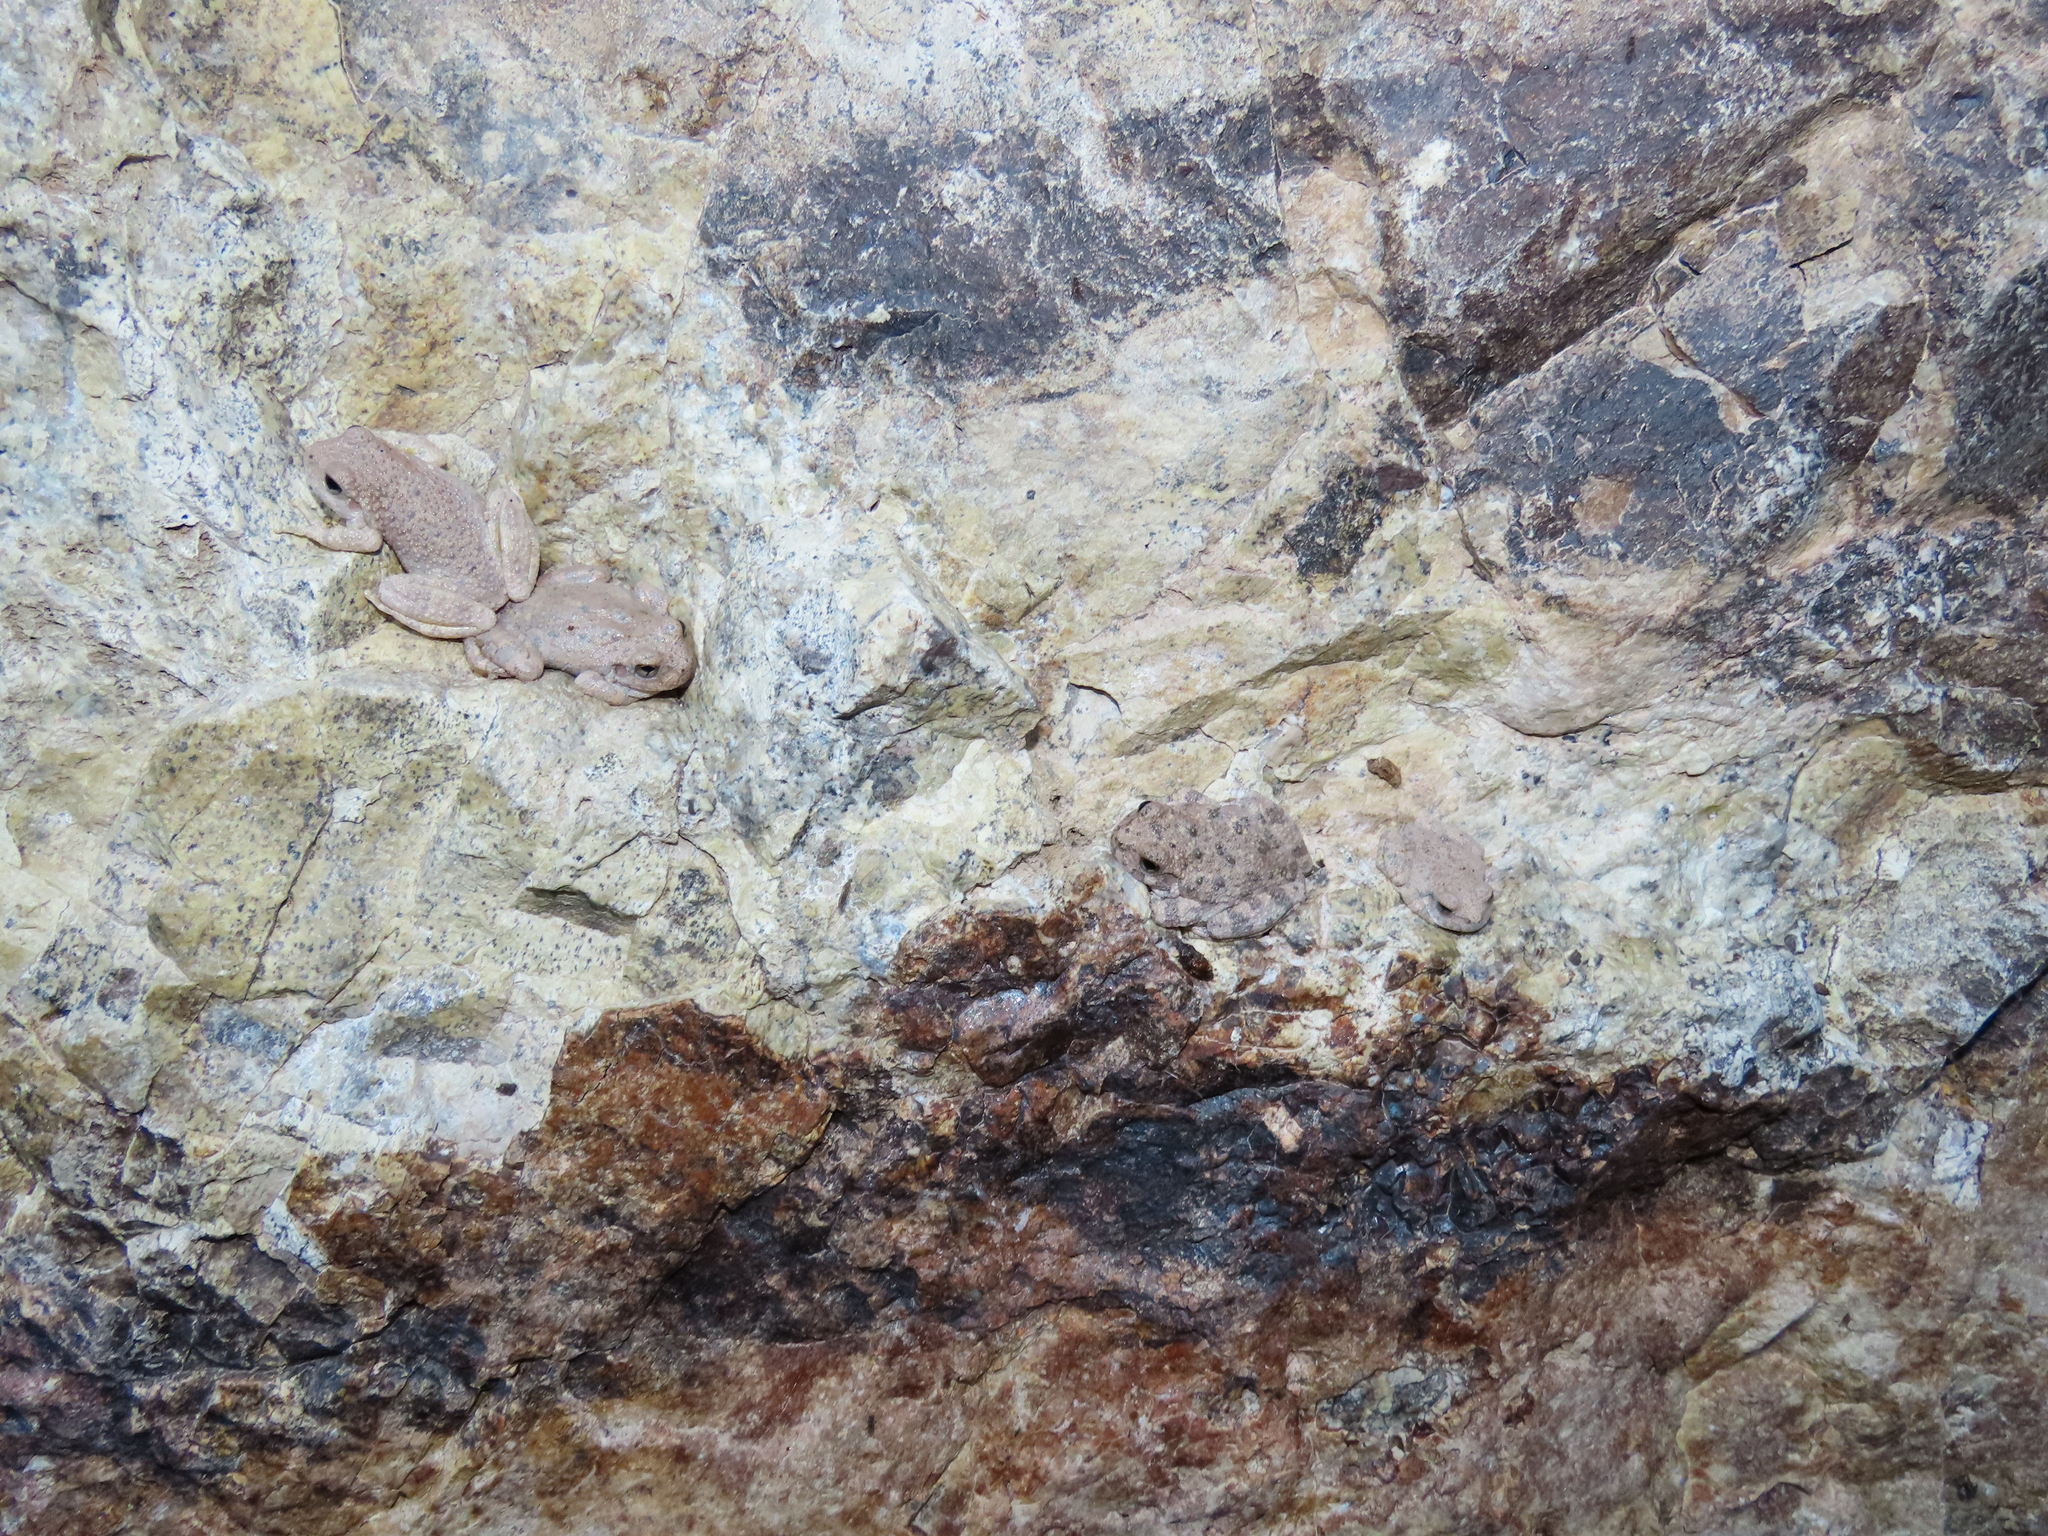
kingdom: Animalia
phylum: Chordata
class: Amphibia
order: Anura
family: Hylidae
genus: Dryophytes
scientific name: Dryophytes arenicolor
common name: Canyon treefrog
